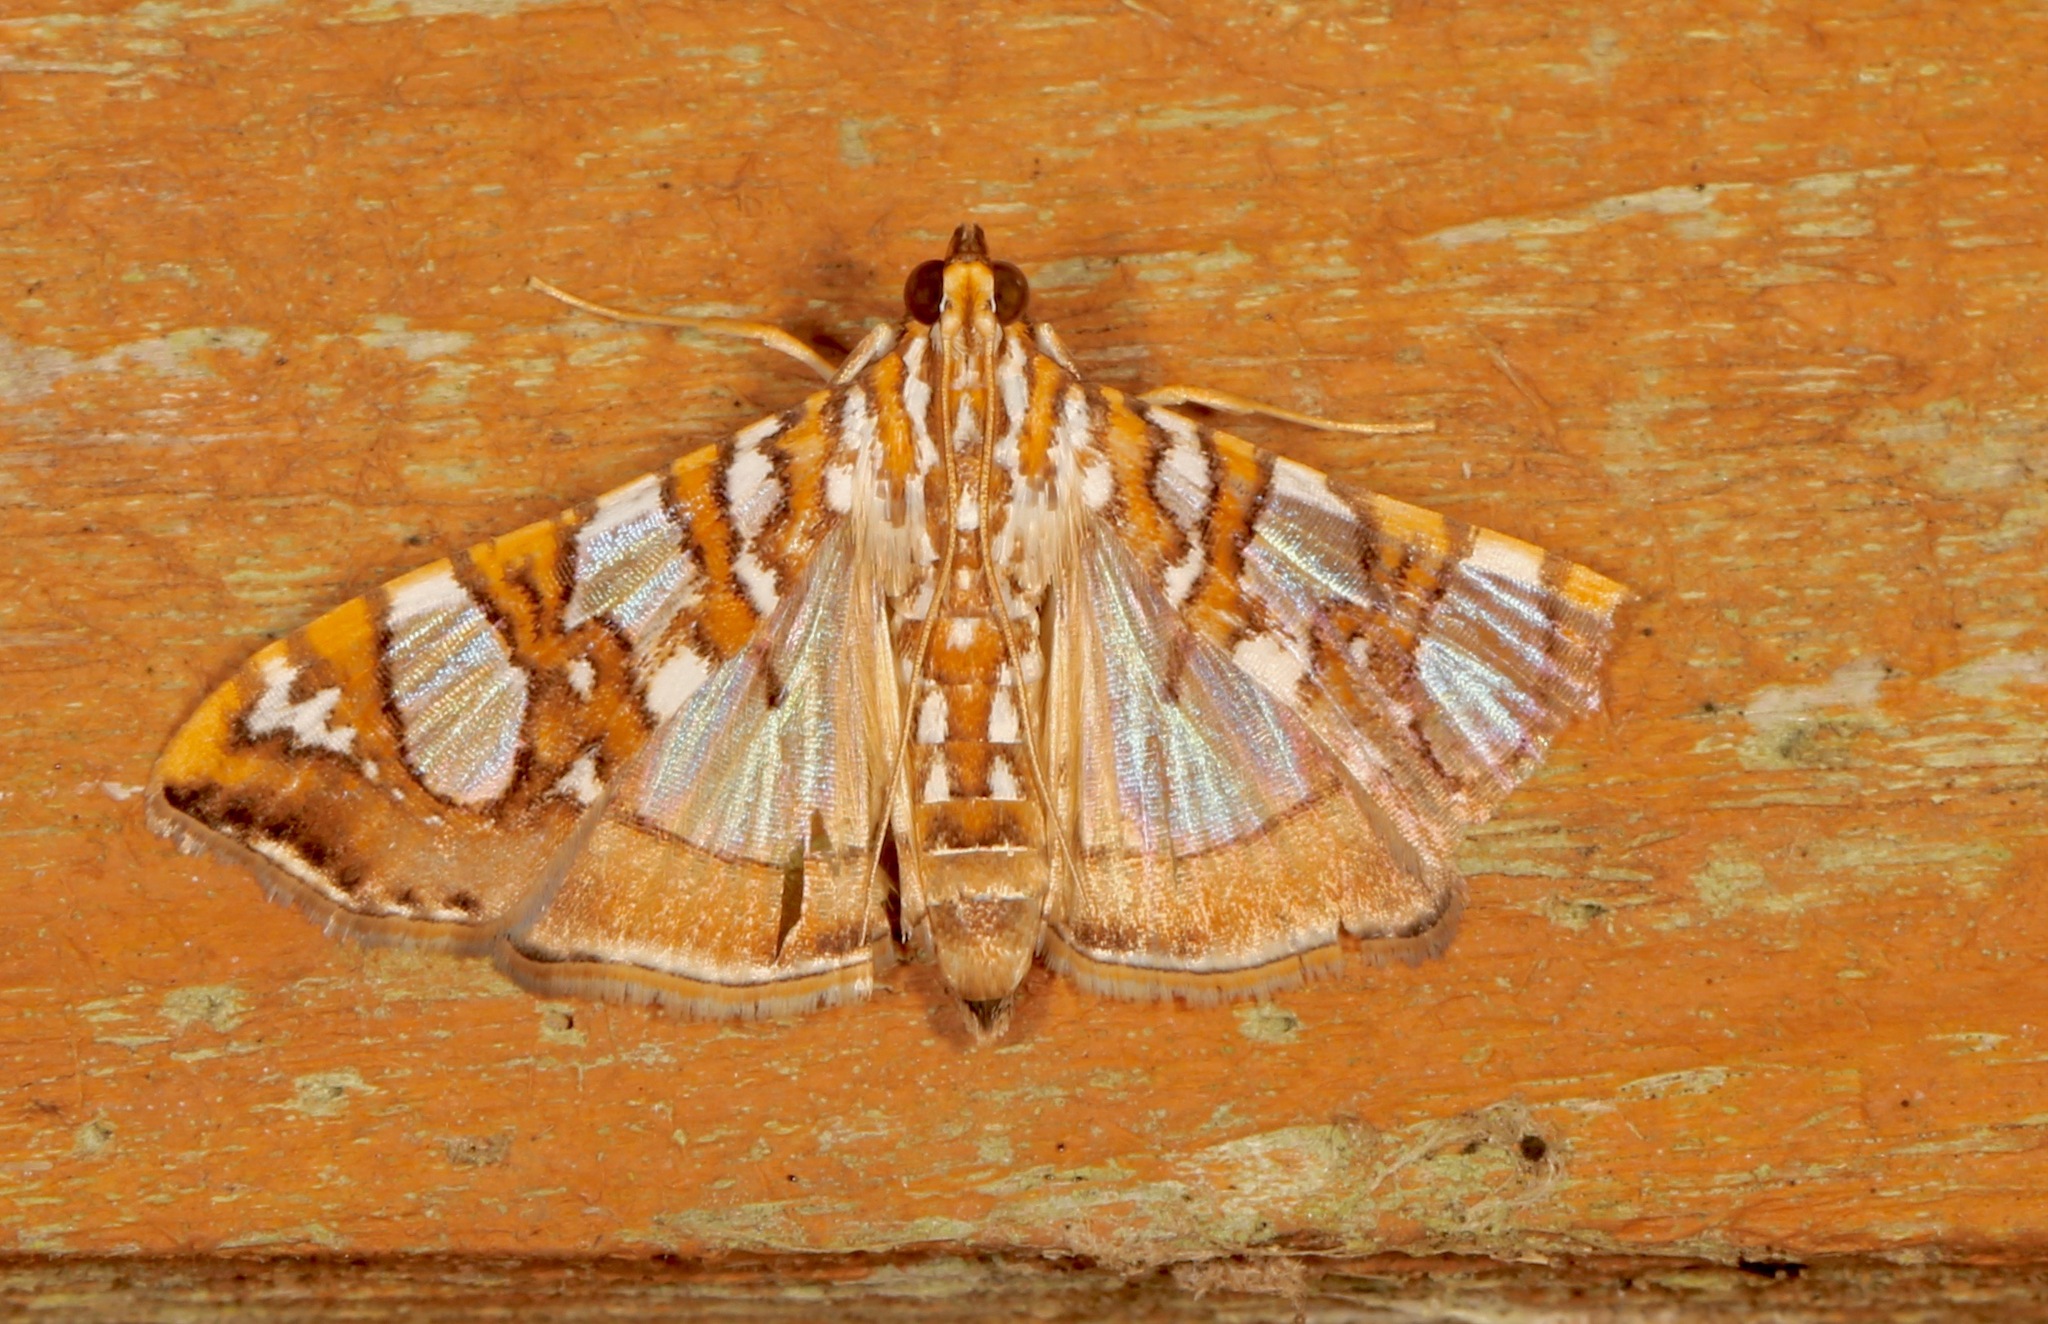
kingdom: Animalia
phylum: Arthropoda
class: Insecta
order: Lepidoptera
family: Crambidae
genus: Glyphodes
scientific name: Glyphodes sibillalis
